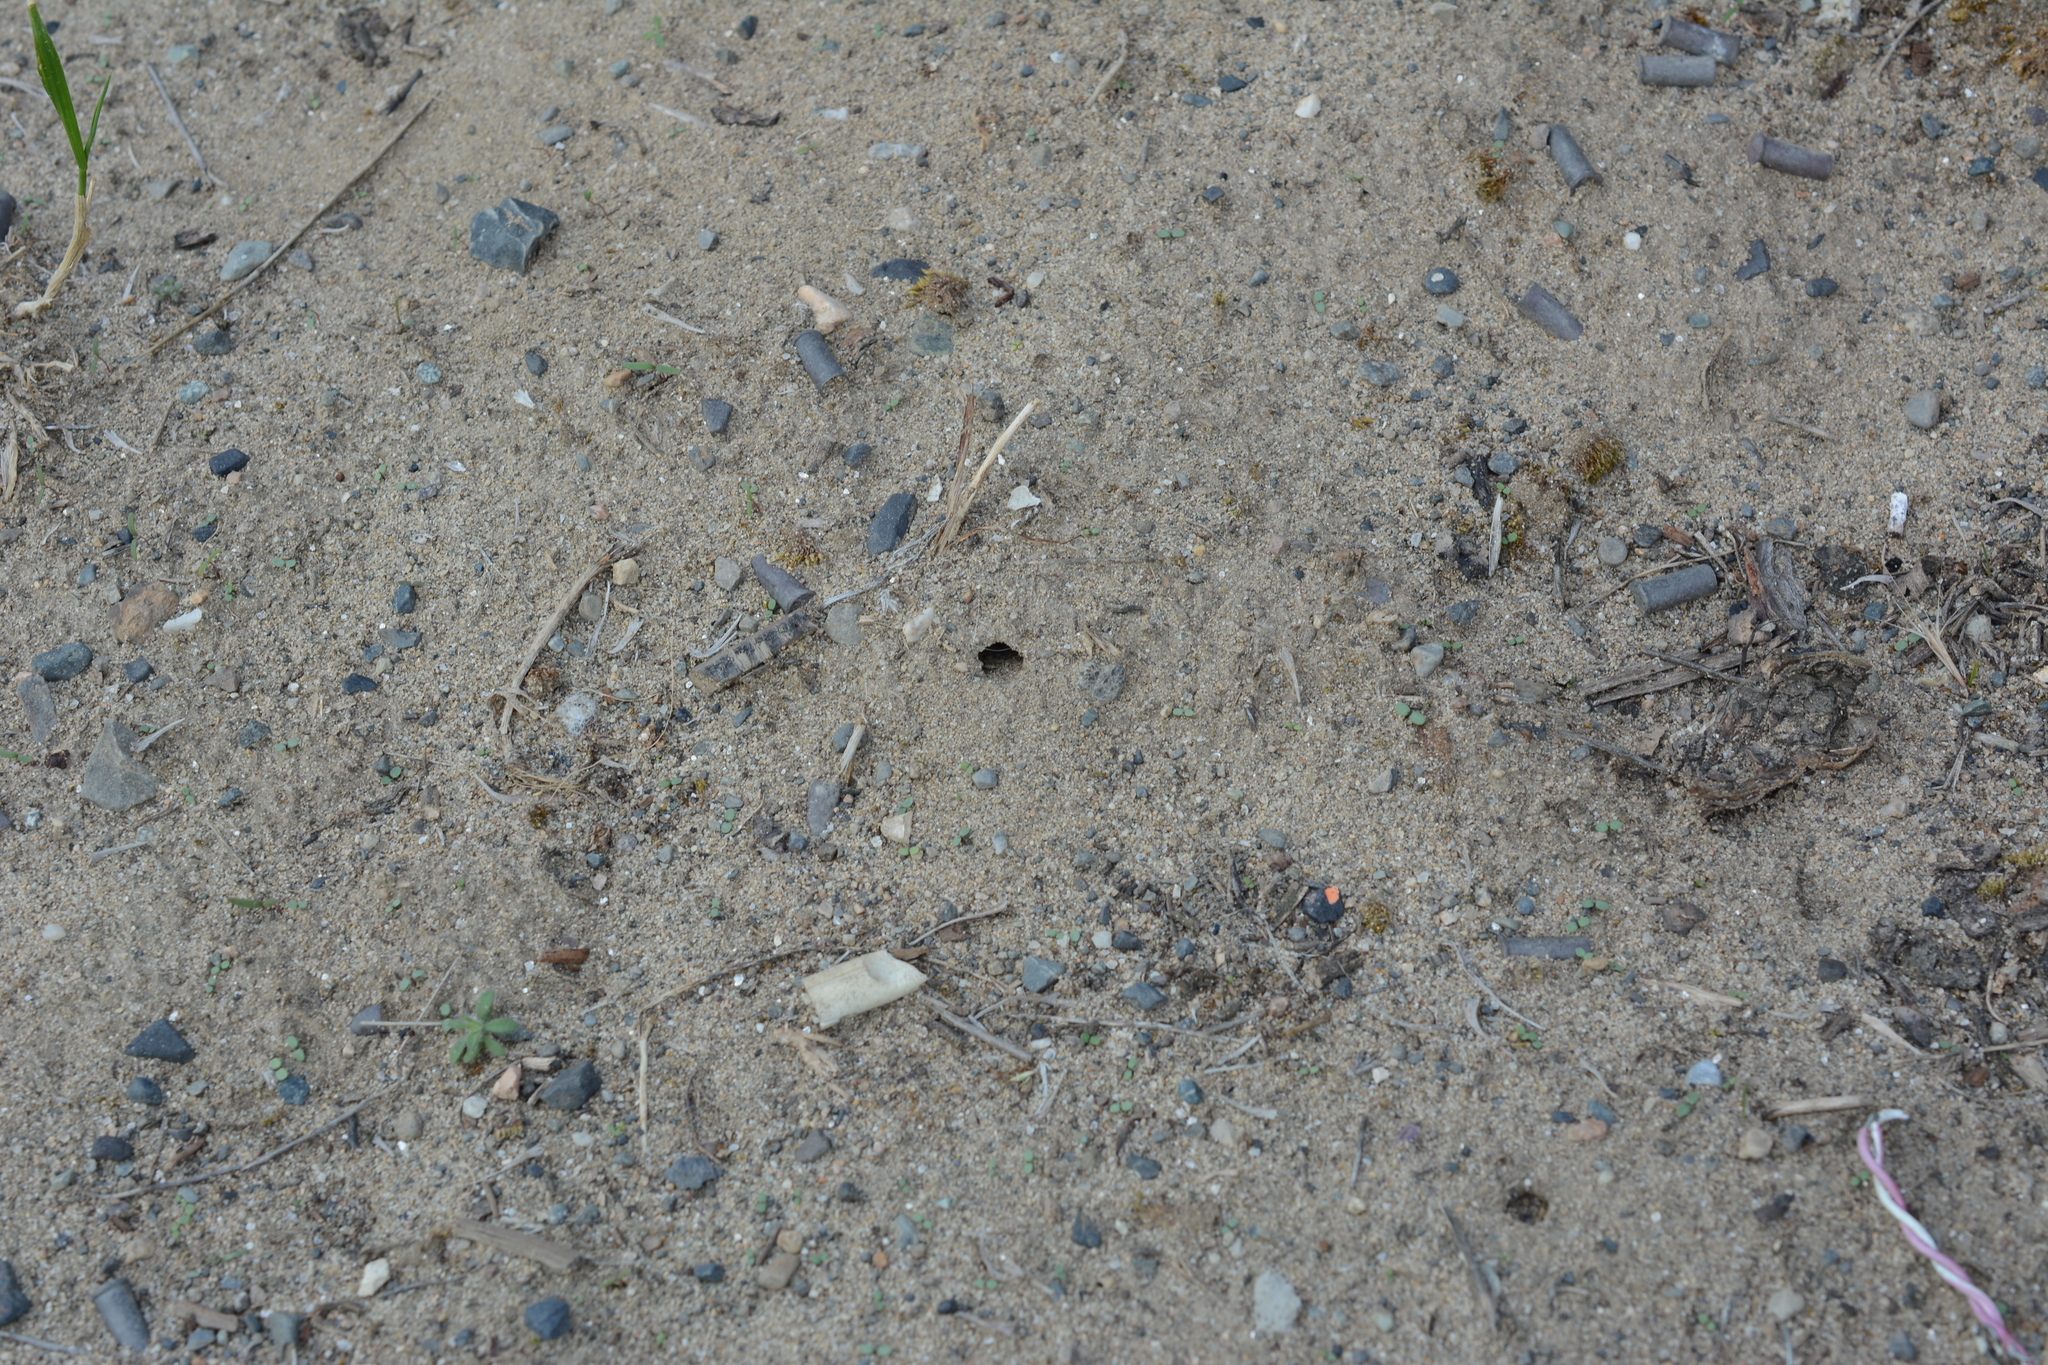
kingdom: Animalia
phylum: Arthropoda
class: Insecta
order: Hymenoptera
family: Crabronidae
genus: Bembix
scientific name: Bembix americana
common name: American sand wasp
